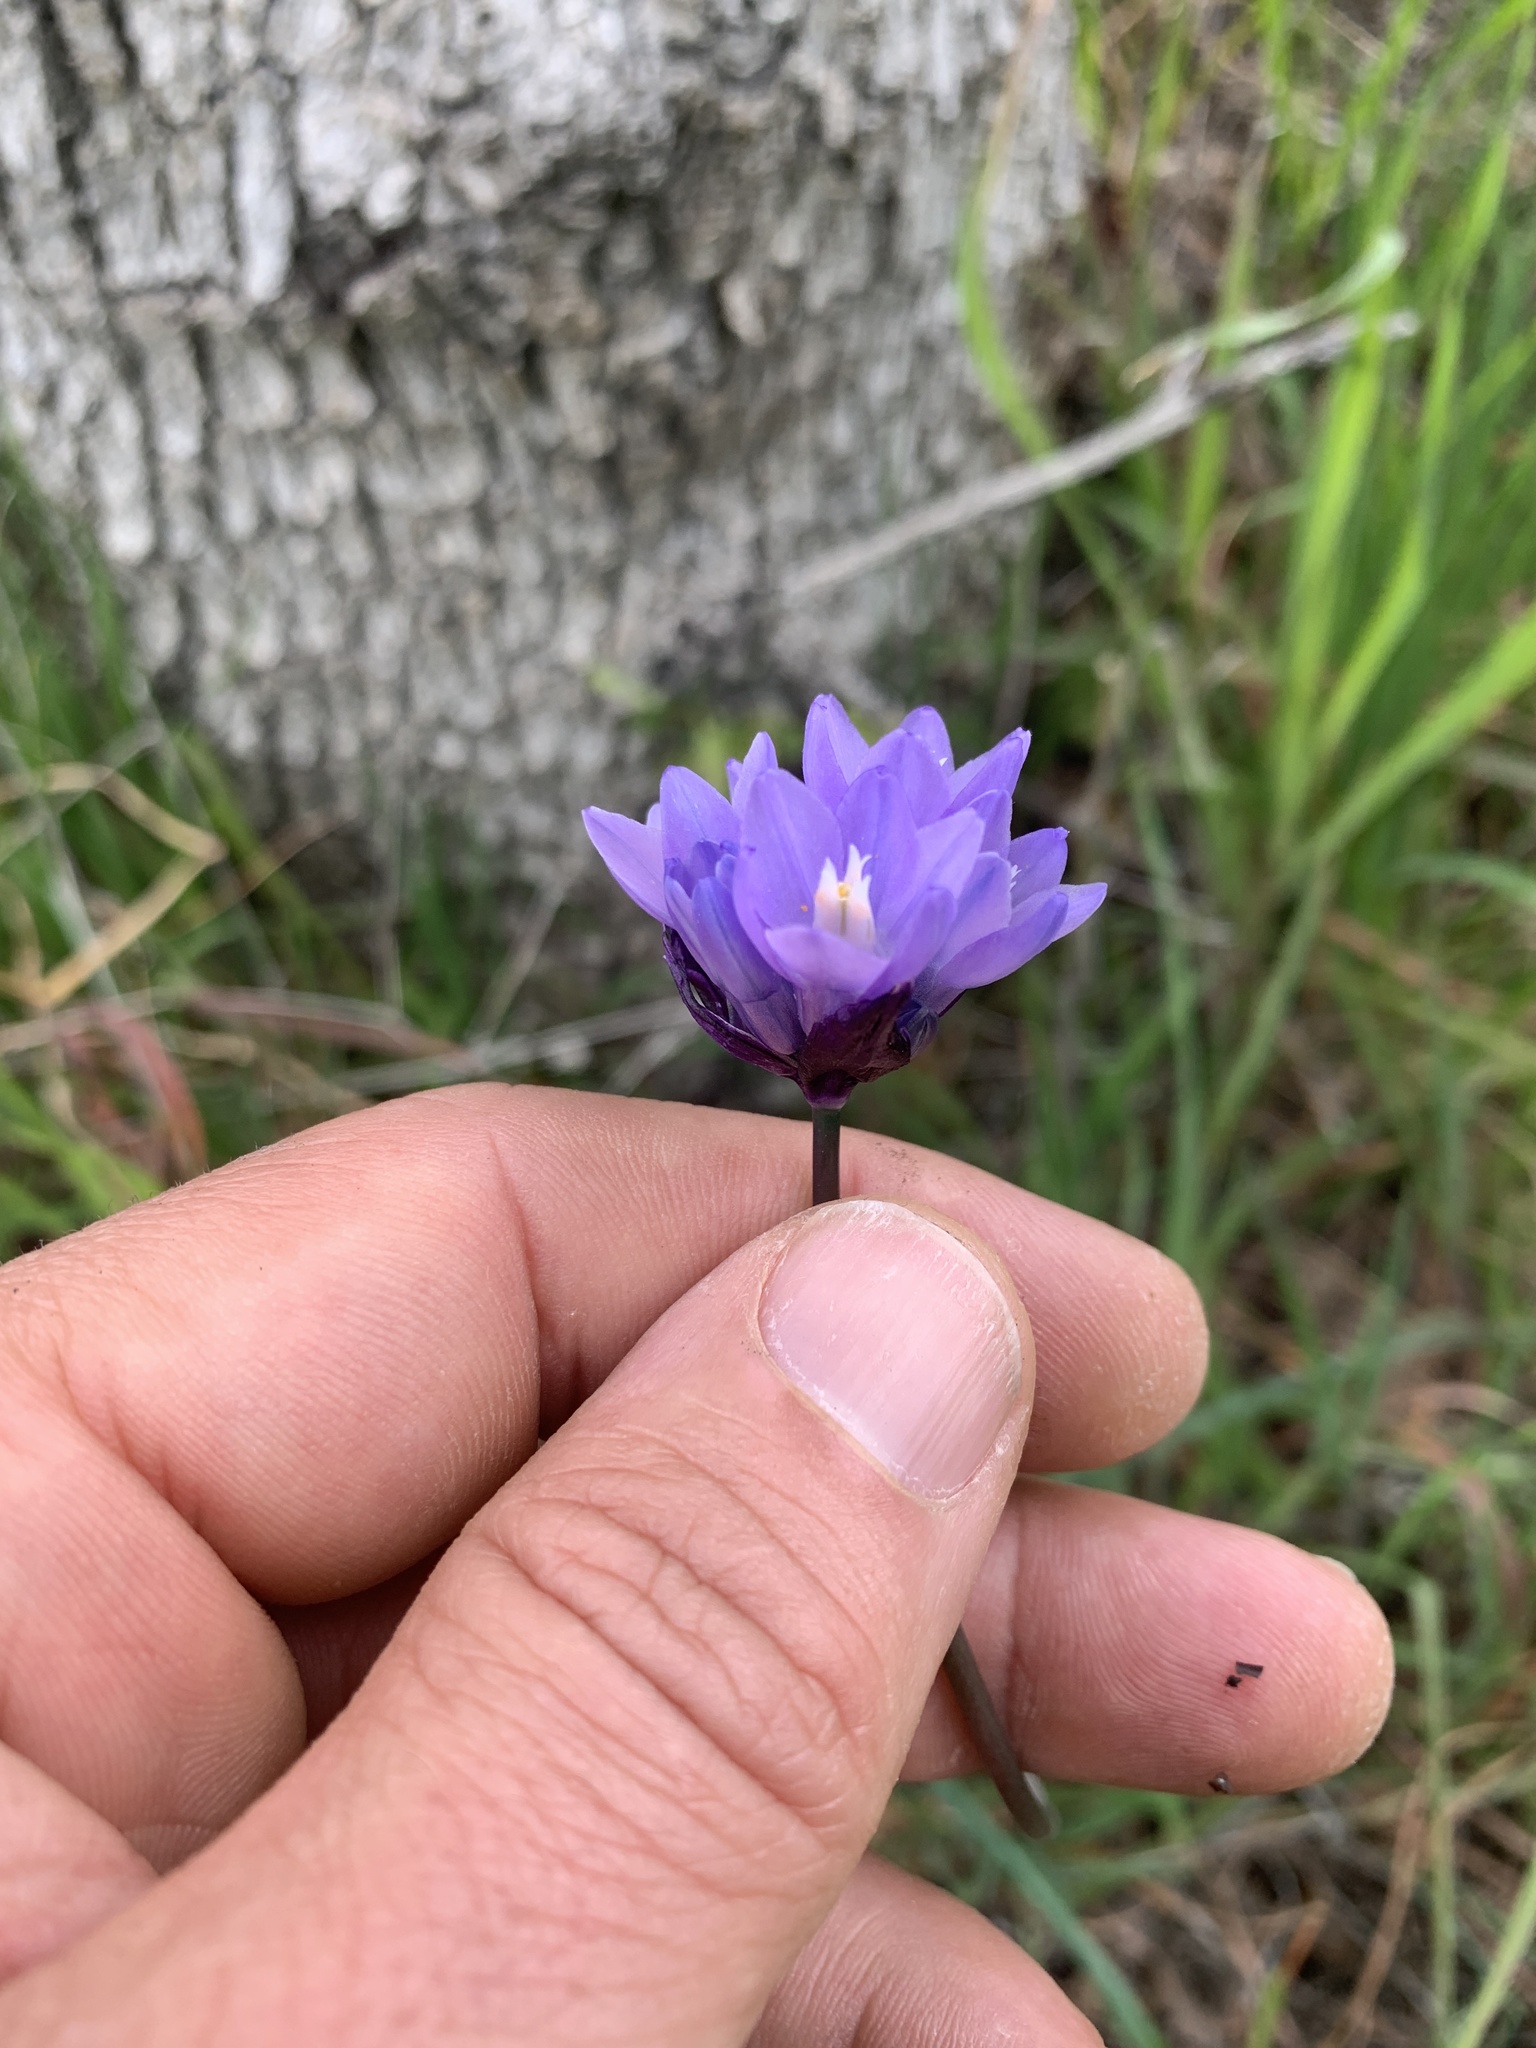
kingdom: Plantae
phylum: Tracheophyta
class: Liliopsida
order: Asparagales
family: Asparagaceae
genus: Dipterostemon
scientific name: Dipterostemon capitatus
